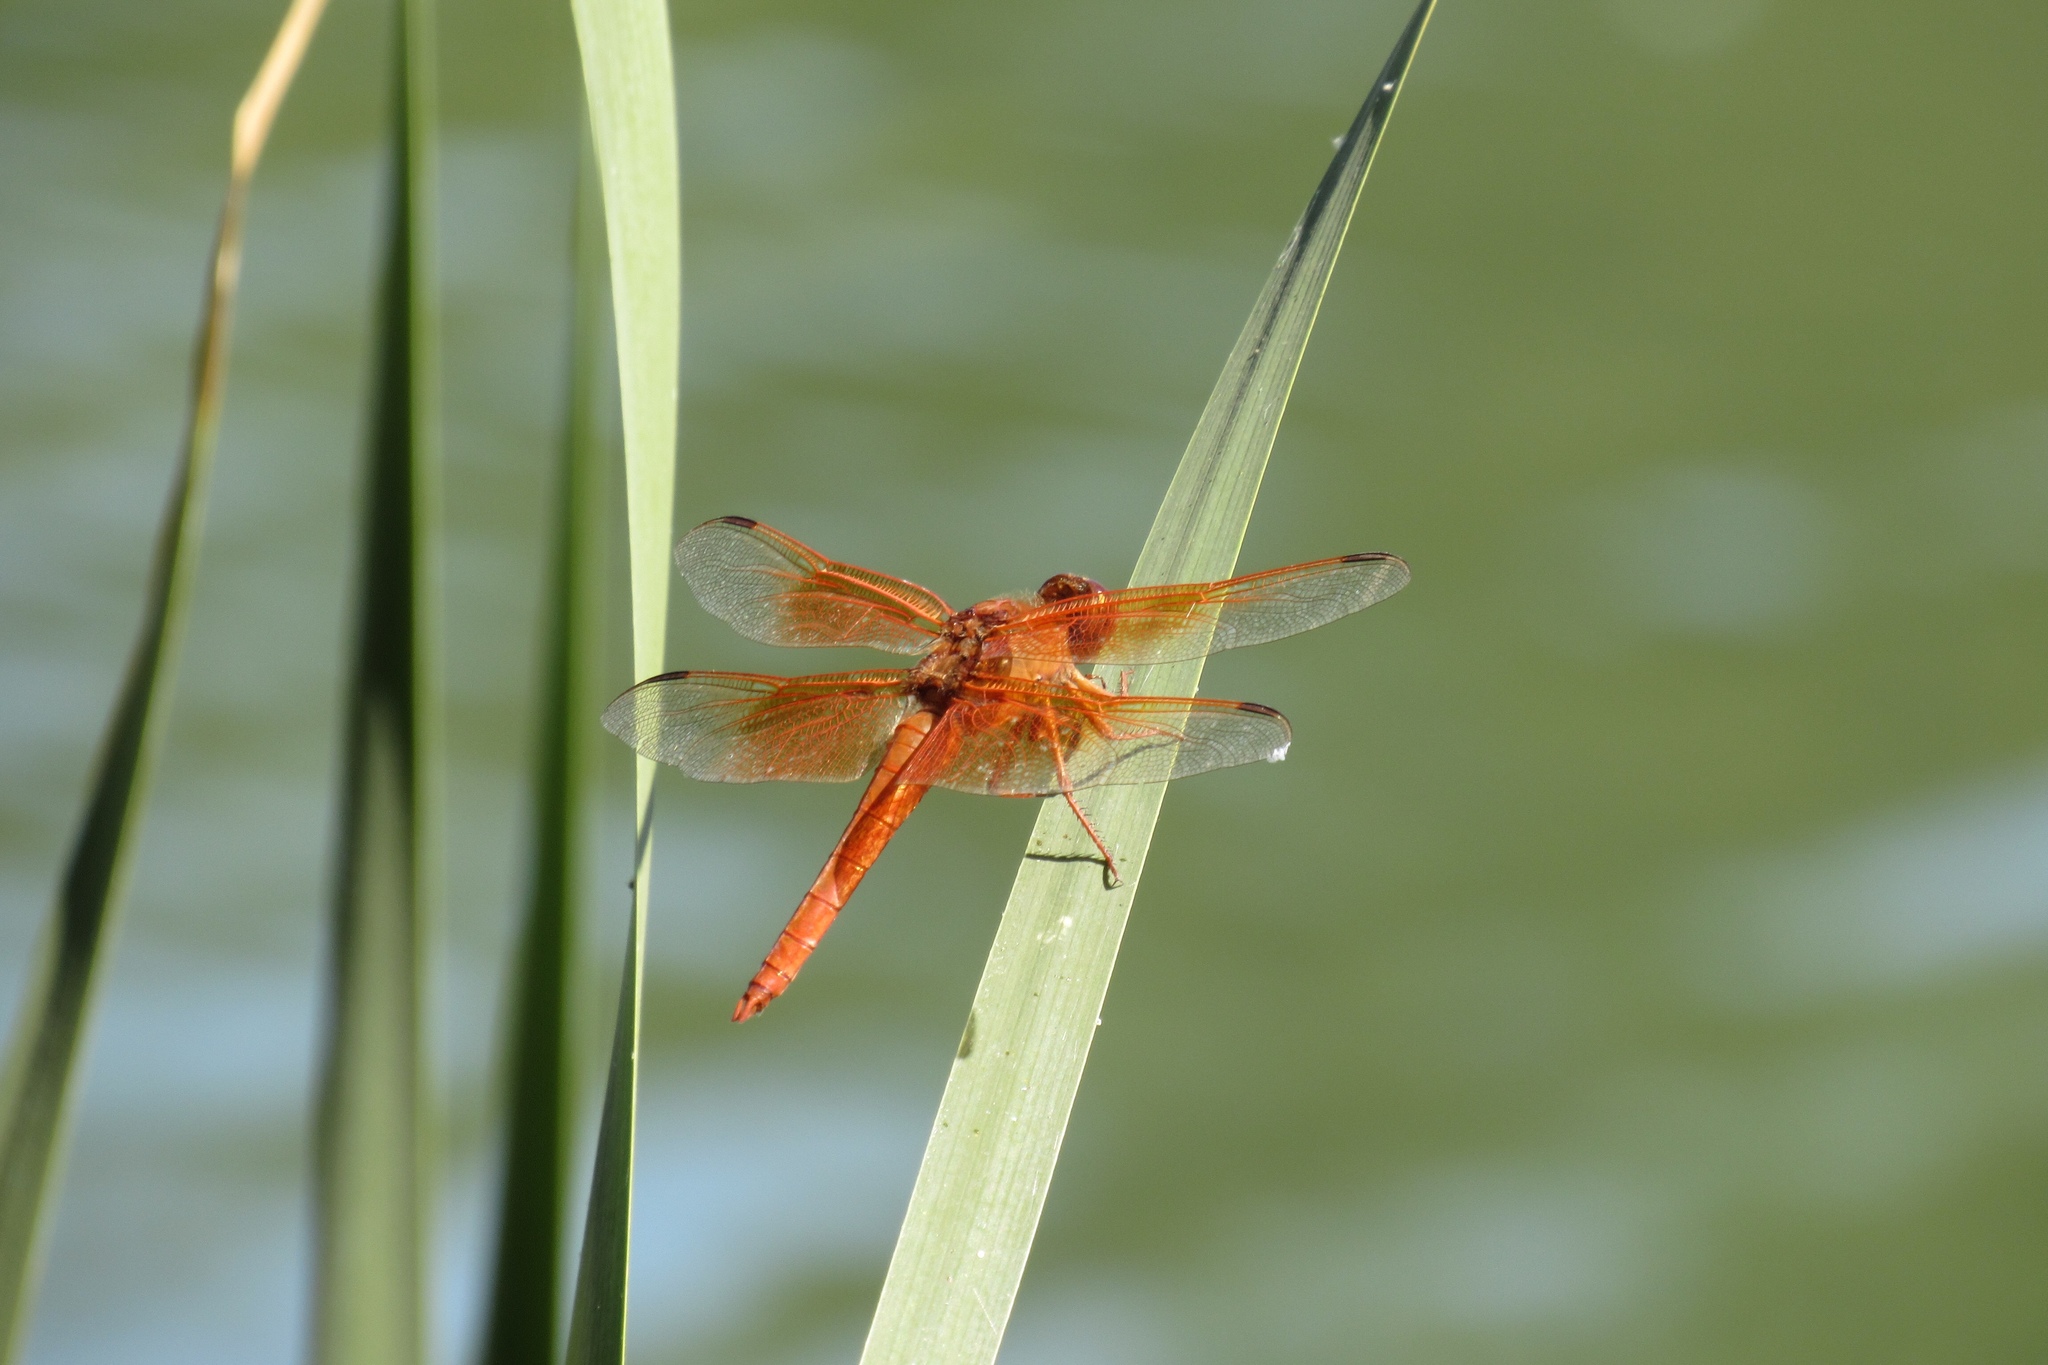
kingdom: Animalia
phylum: Arthropoda
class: Insecta
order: Odonata
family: Libellulidae
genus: Libellula
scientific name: Libellula saturata
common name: Flame skimmer
